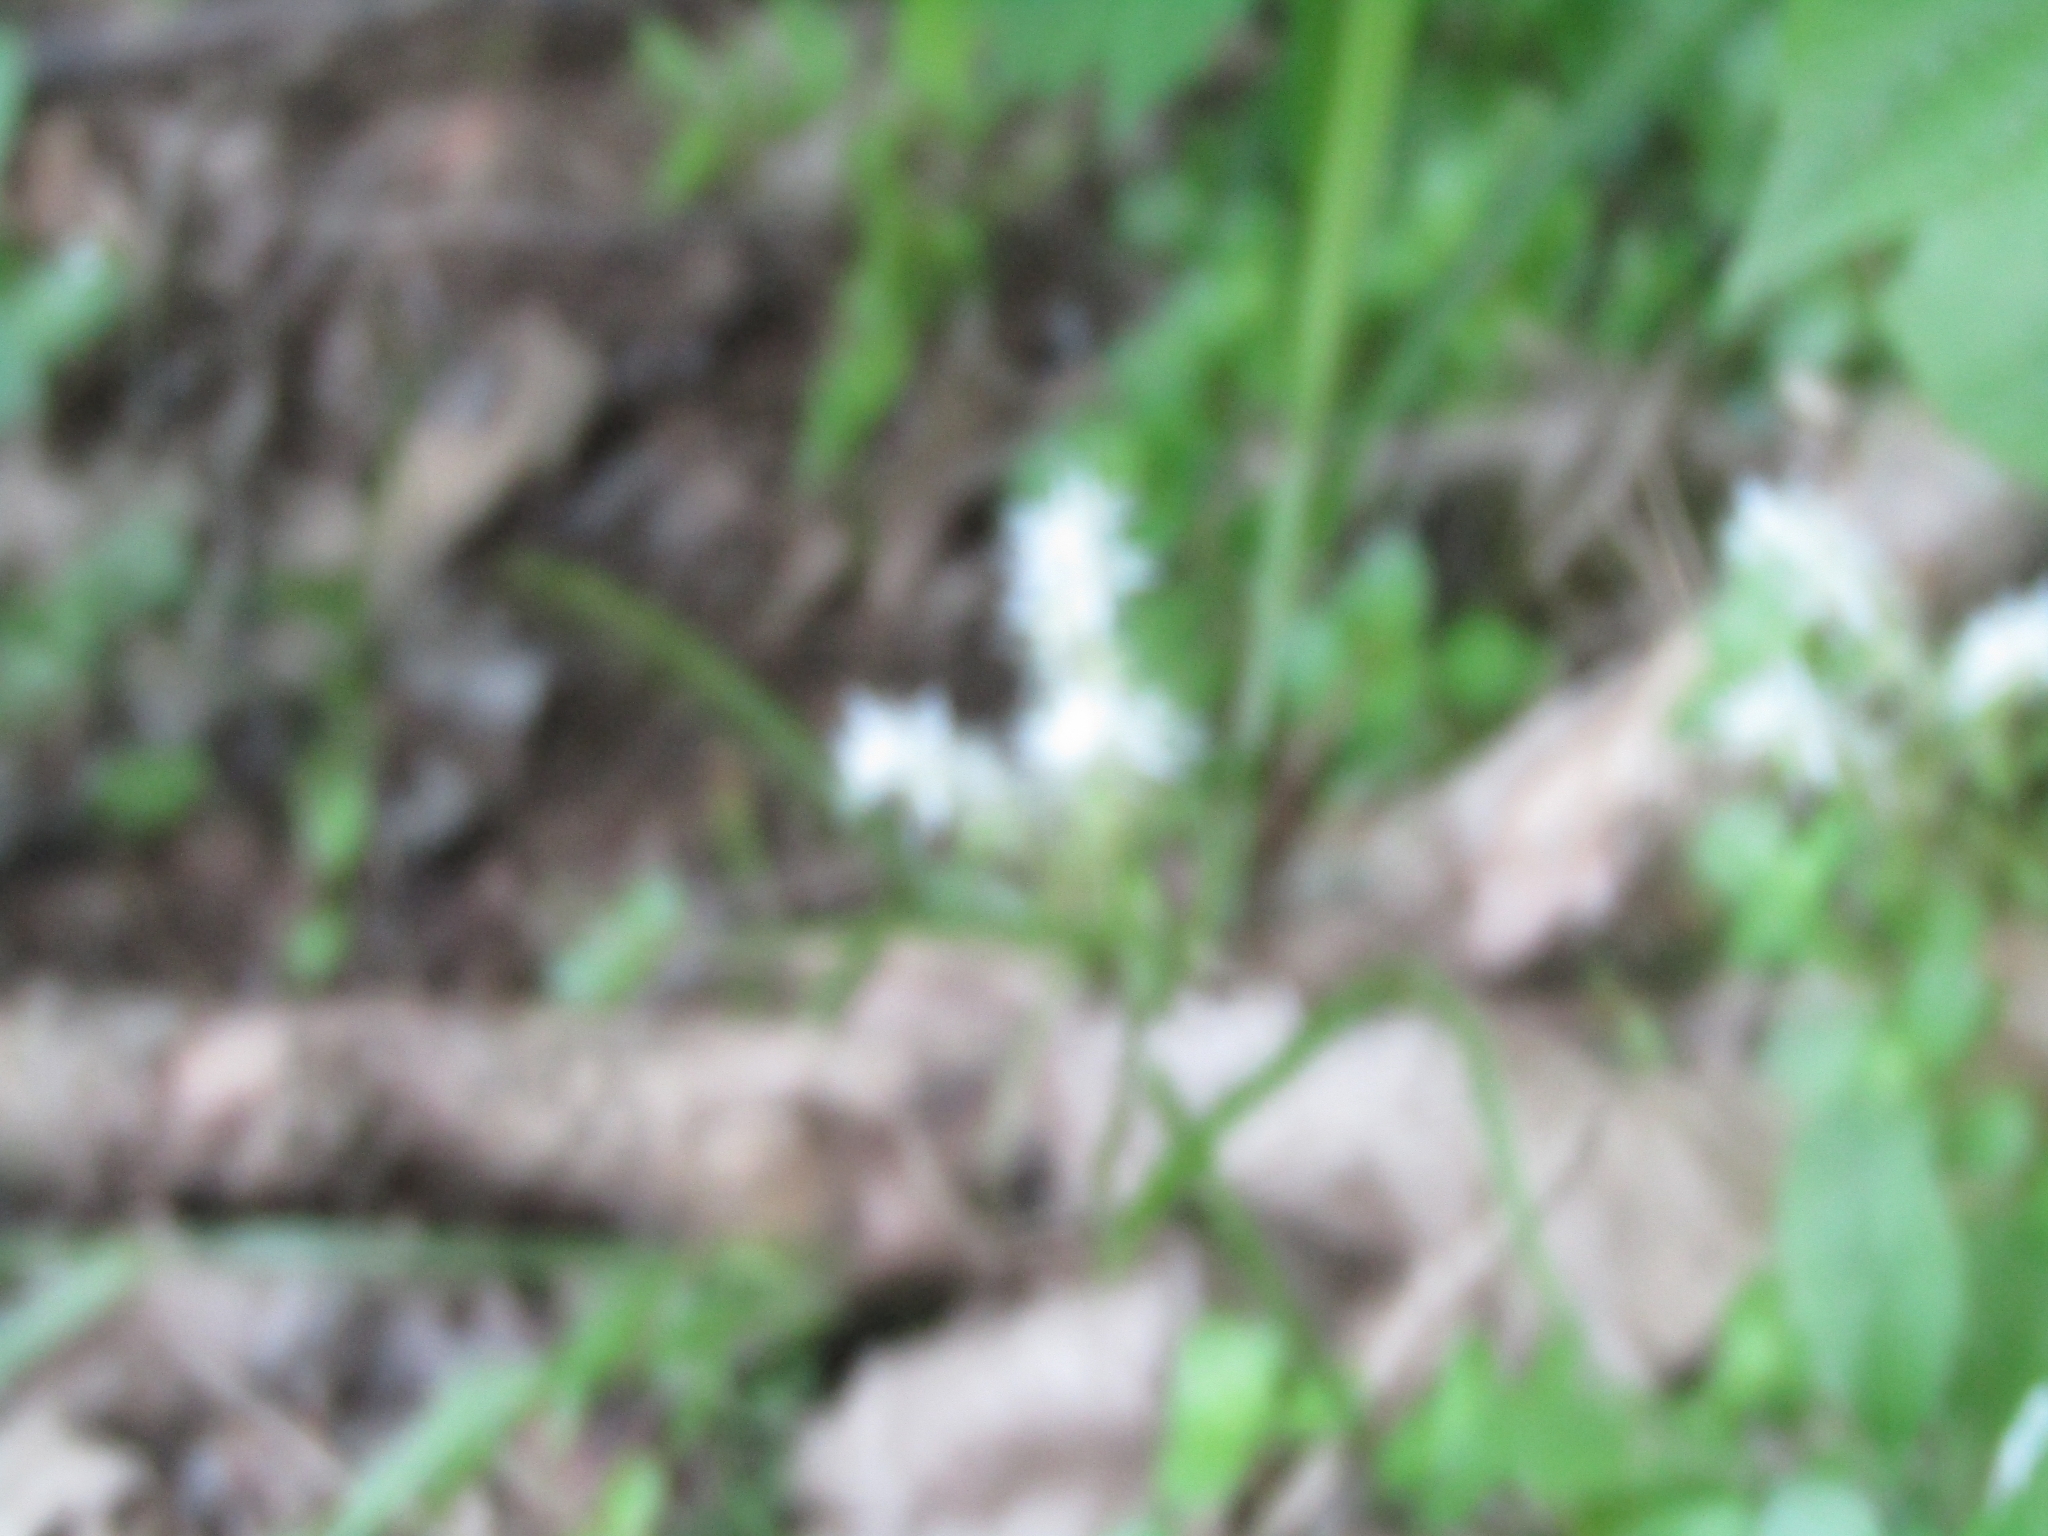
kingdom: Plantae
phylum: Tracheophyta
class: Magnoliopsida
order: Saxifragales
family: Crassulaceae
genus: Sedum
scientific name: Sedum ternatum
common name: Wild stonecrop
